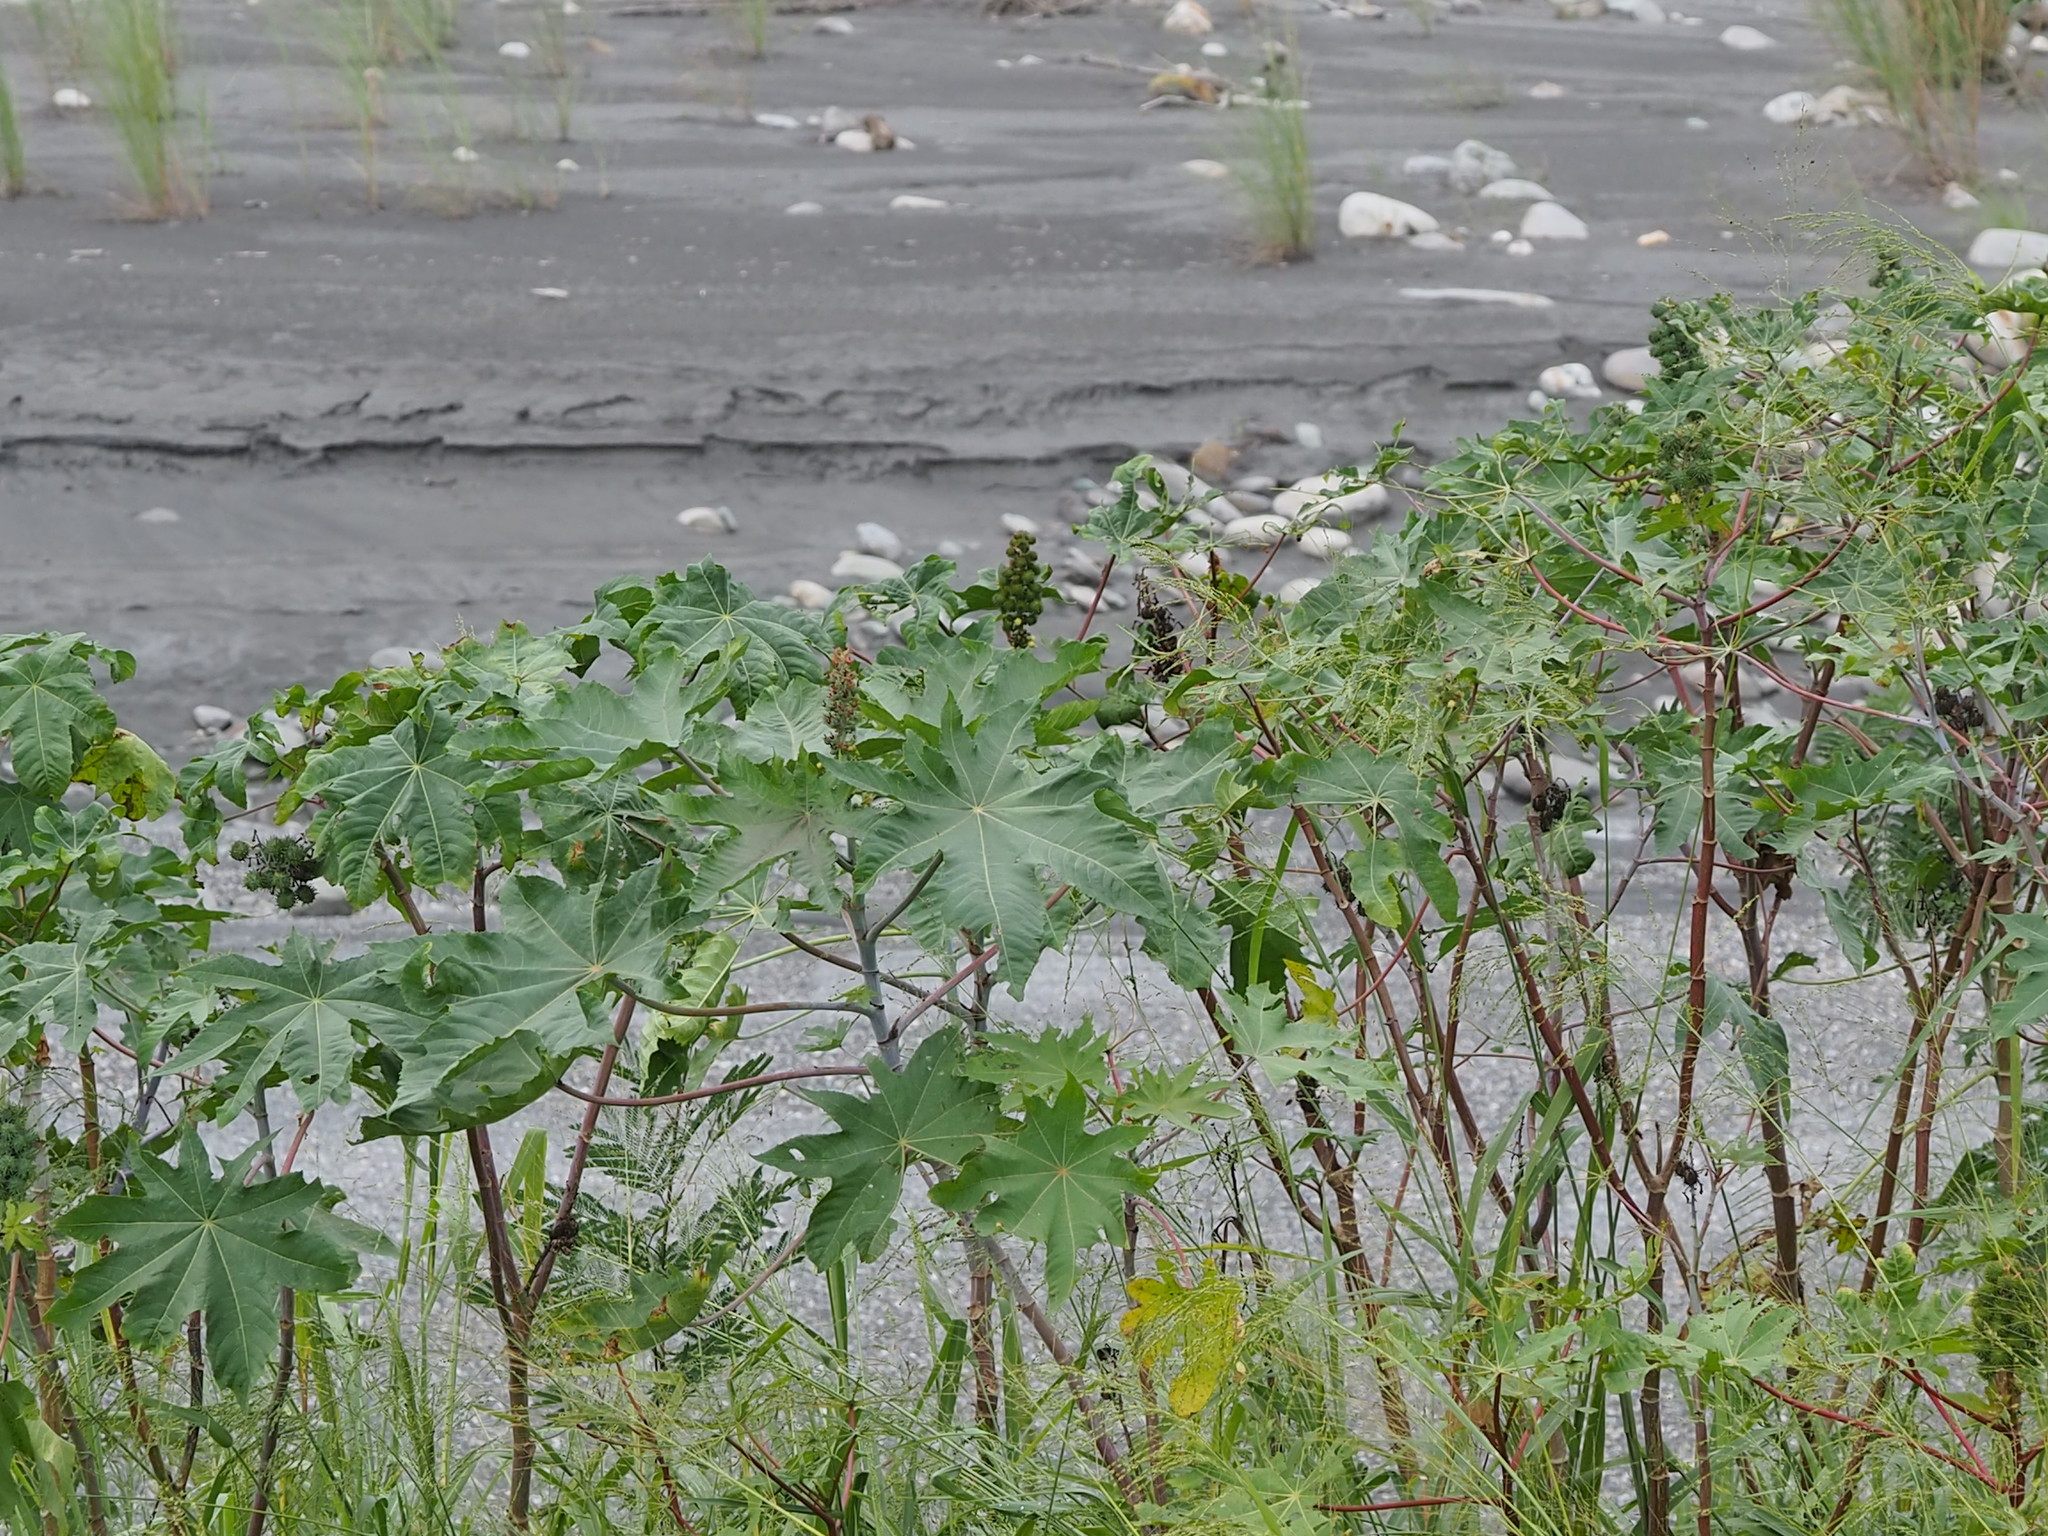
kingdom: Plantae
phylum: Tracheophyta
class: Magnoliopsida
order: Malpighiales
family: Euphorbiaceae
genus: Ricinus
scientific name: Ricinus communis
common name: Castor-oil-plant
